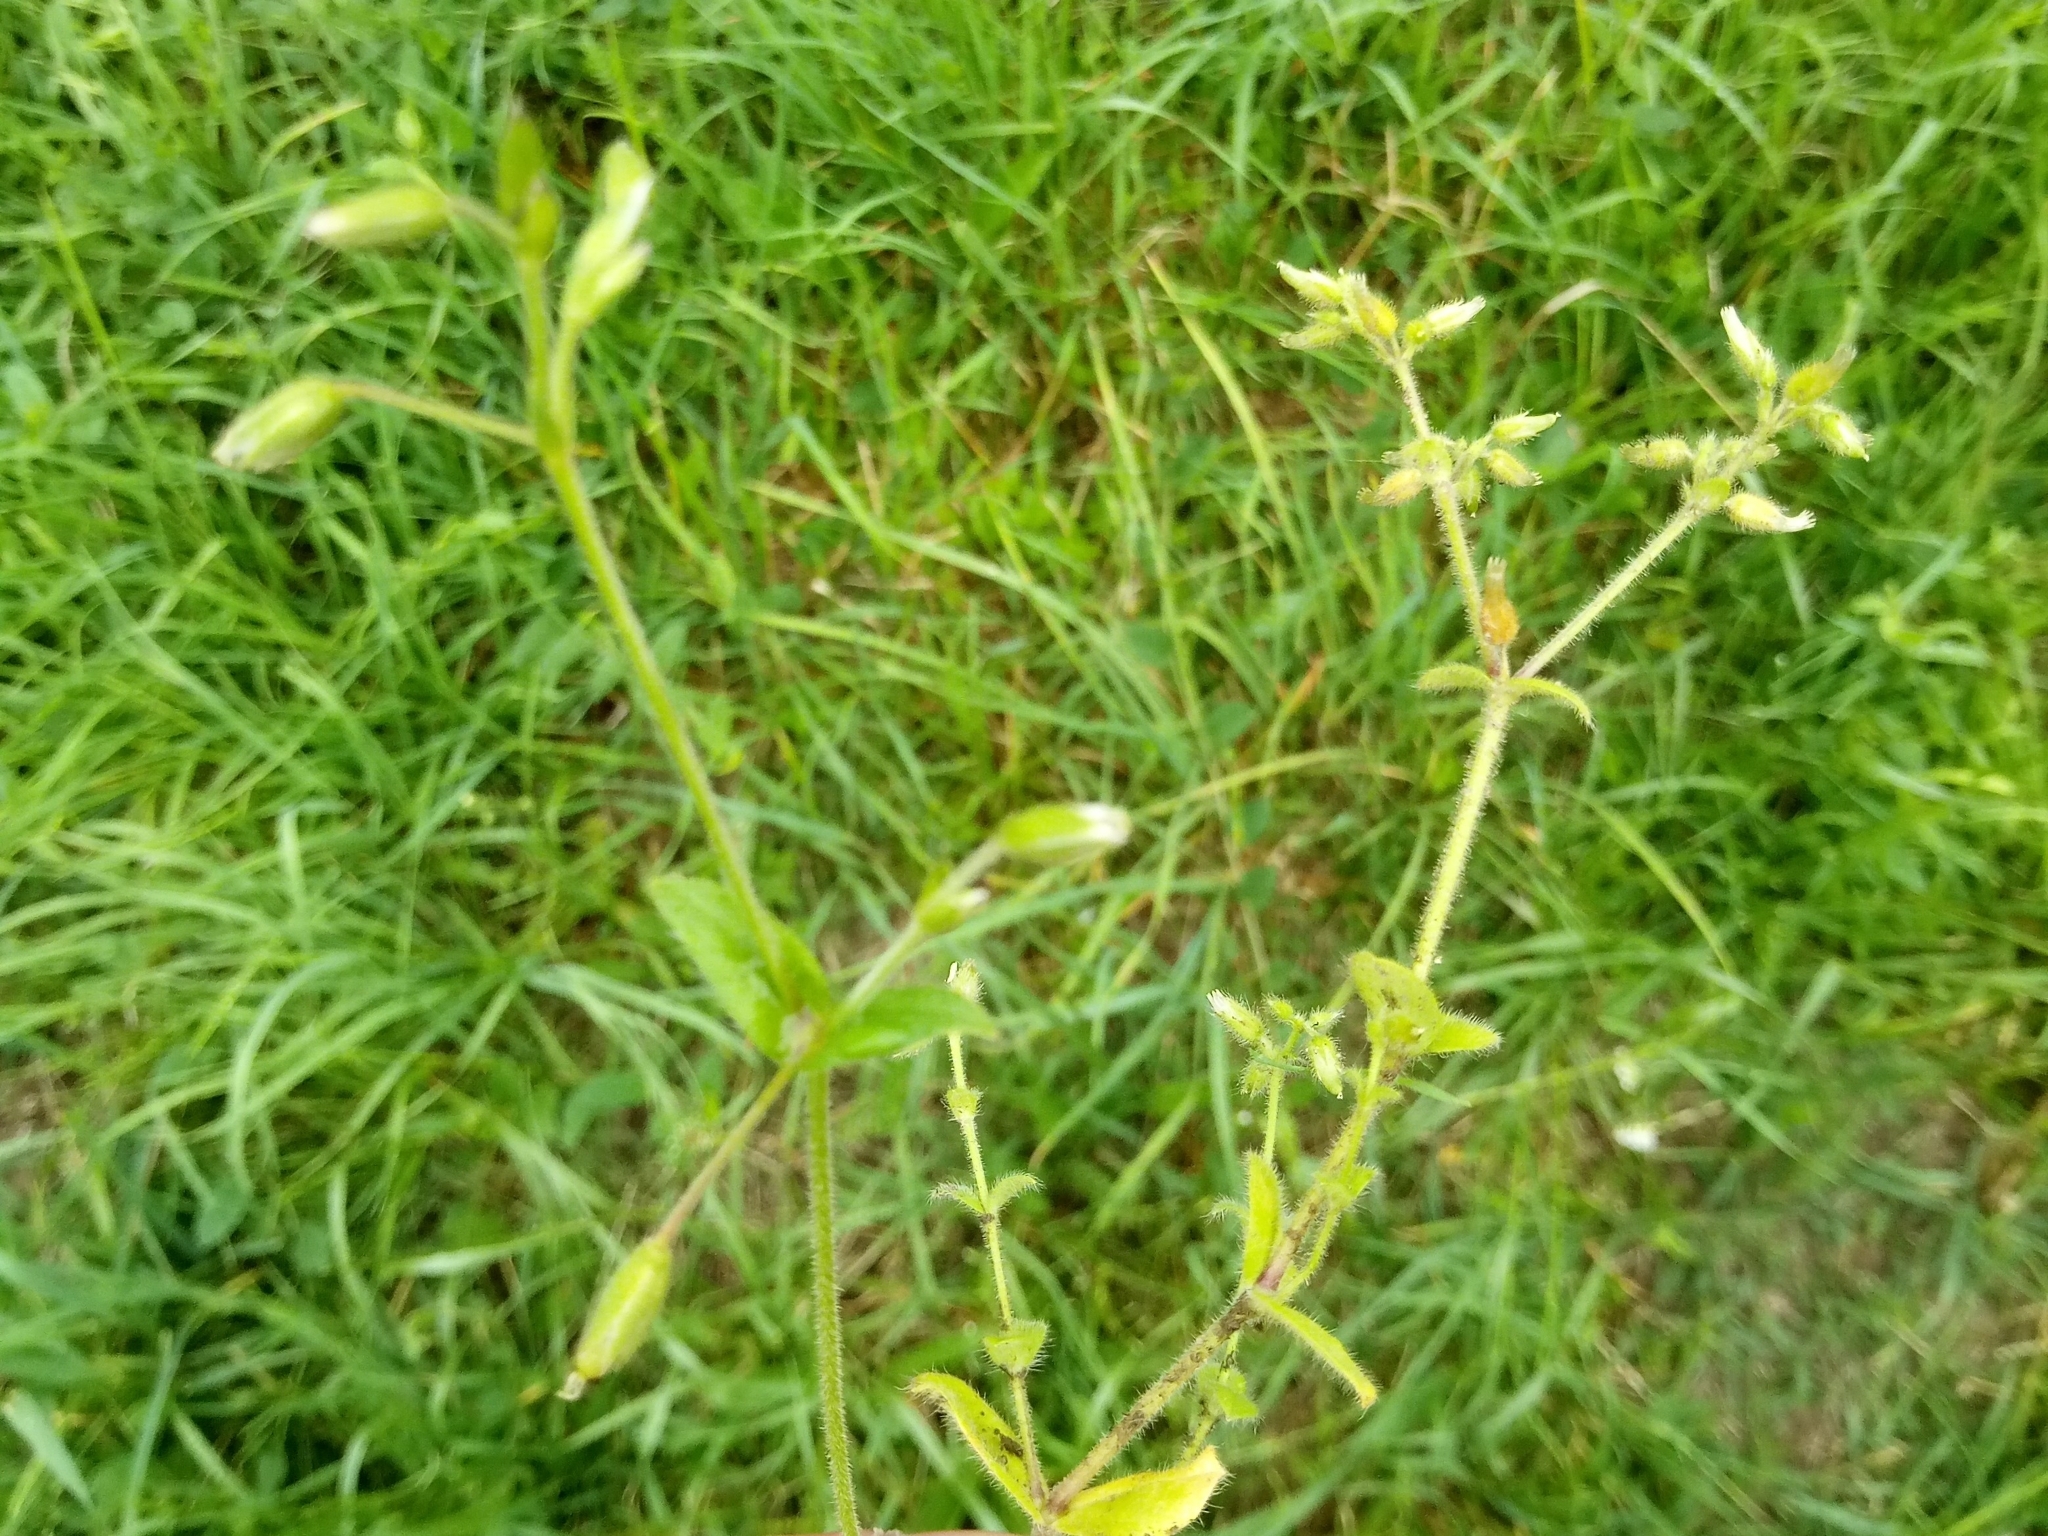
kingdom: Plantae
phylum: Tracheophyta
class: Magnoliopsida
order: Caryophyllales
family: Caryophyllaceae
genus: Cerastium
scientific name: Cerastium glomeratum
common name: Sticky chickweed
